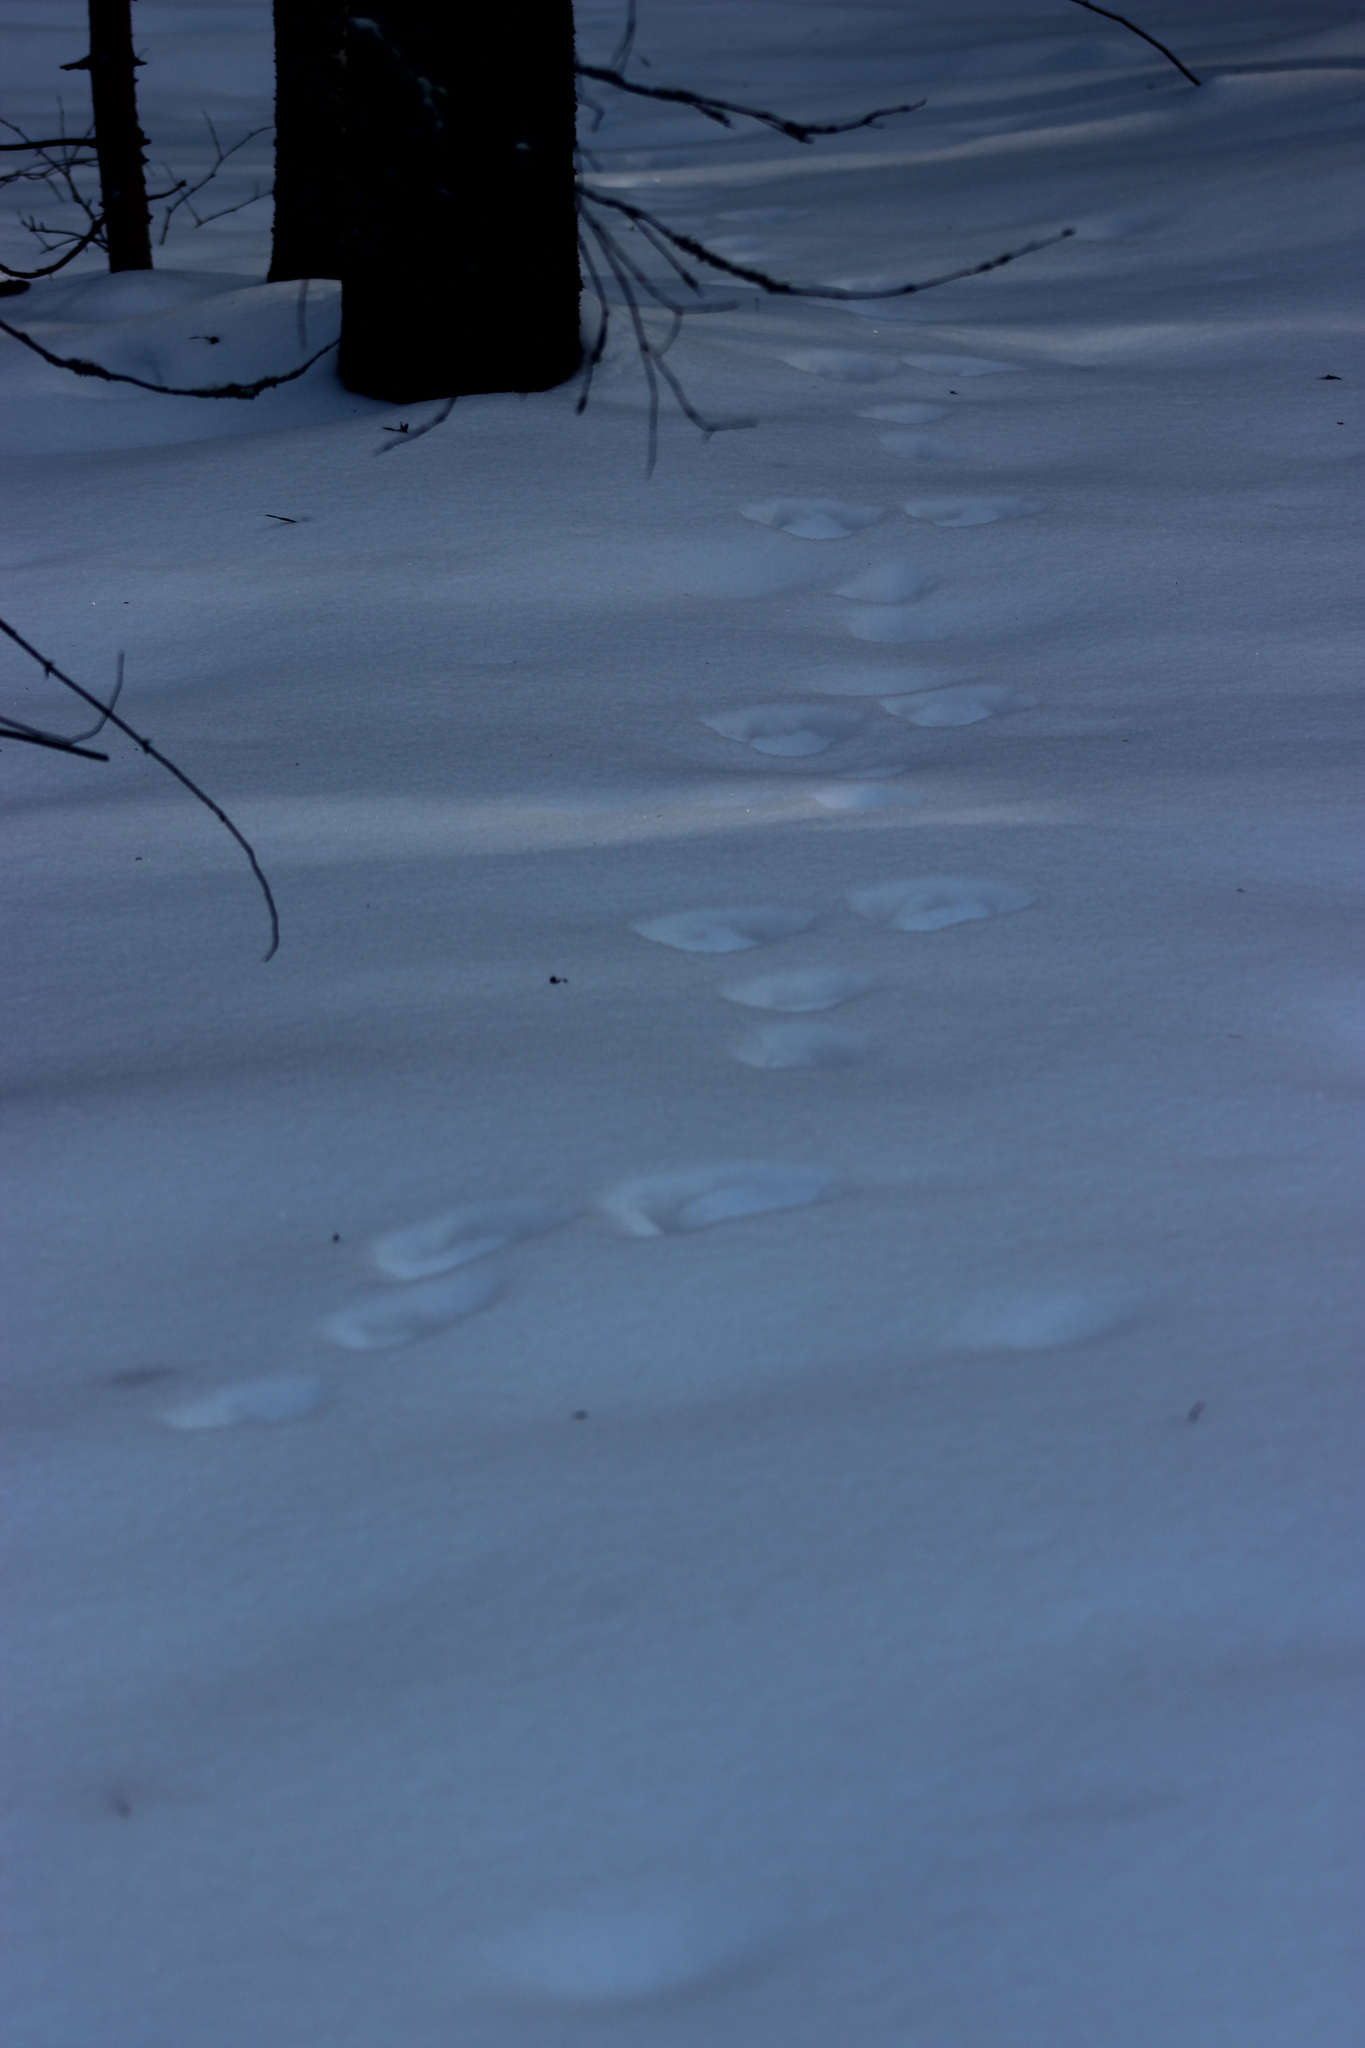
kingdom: Animalia
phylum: Chordata
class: Mammalia
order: Lagomorpha
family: Leporidae
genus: Lepus
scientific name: Lepus timidus
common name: Mountain hare
